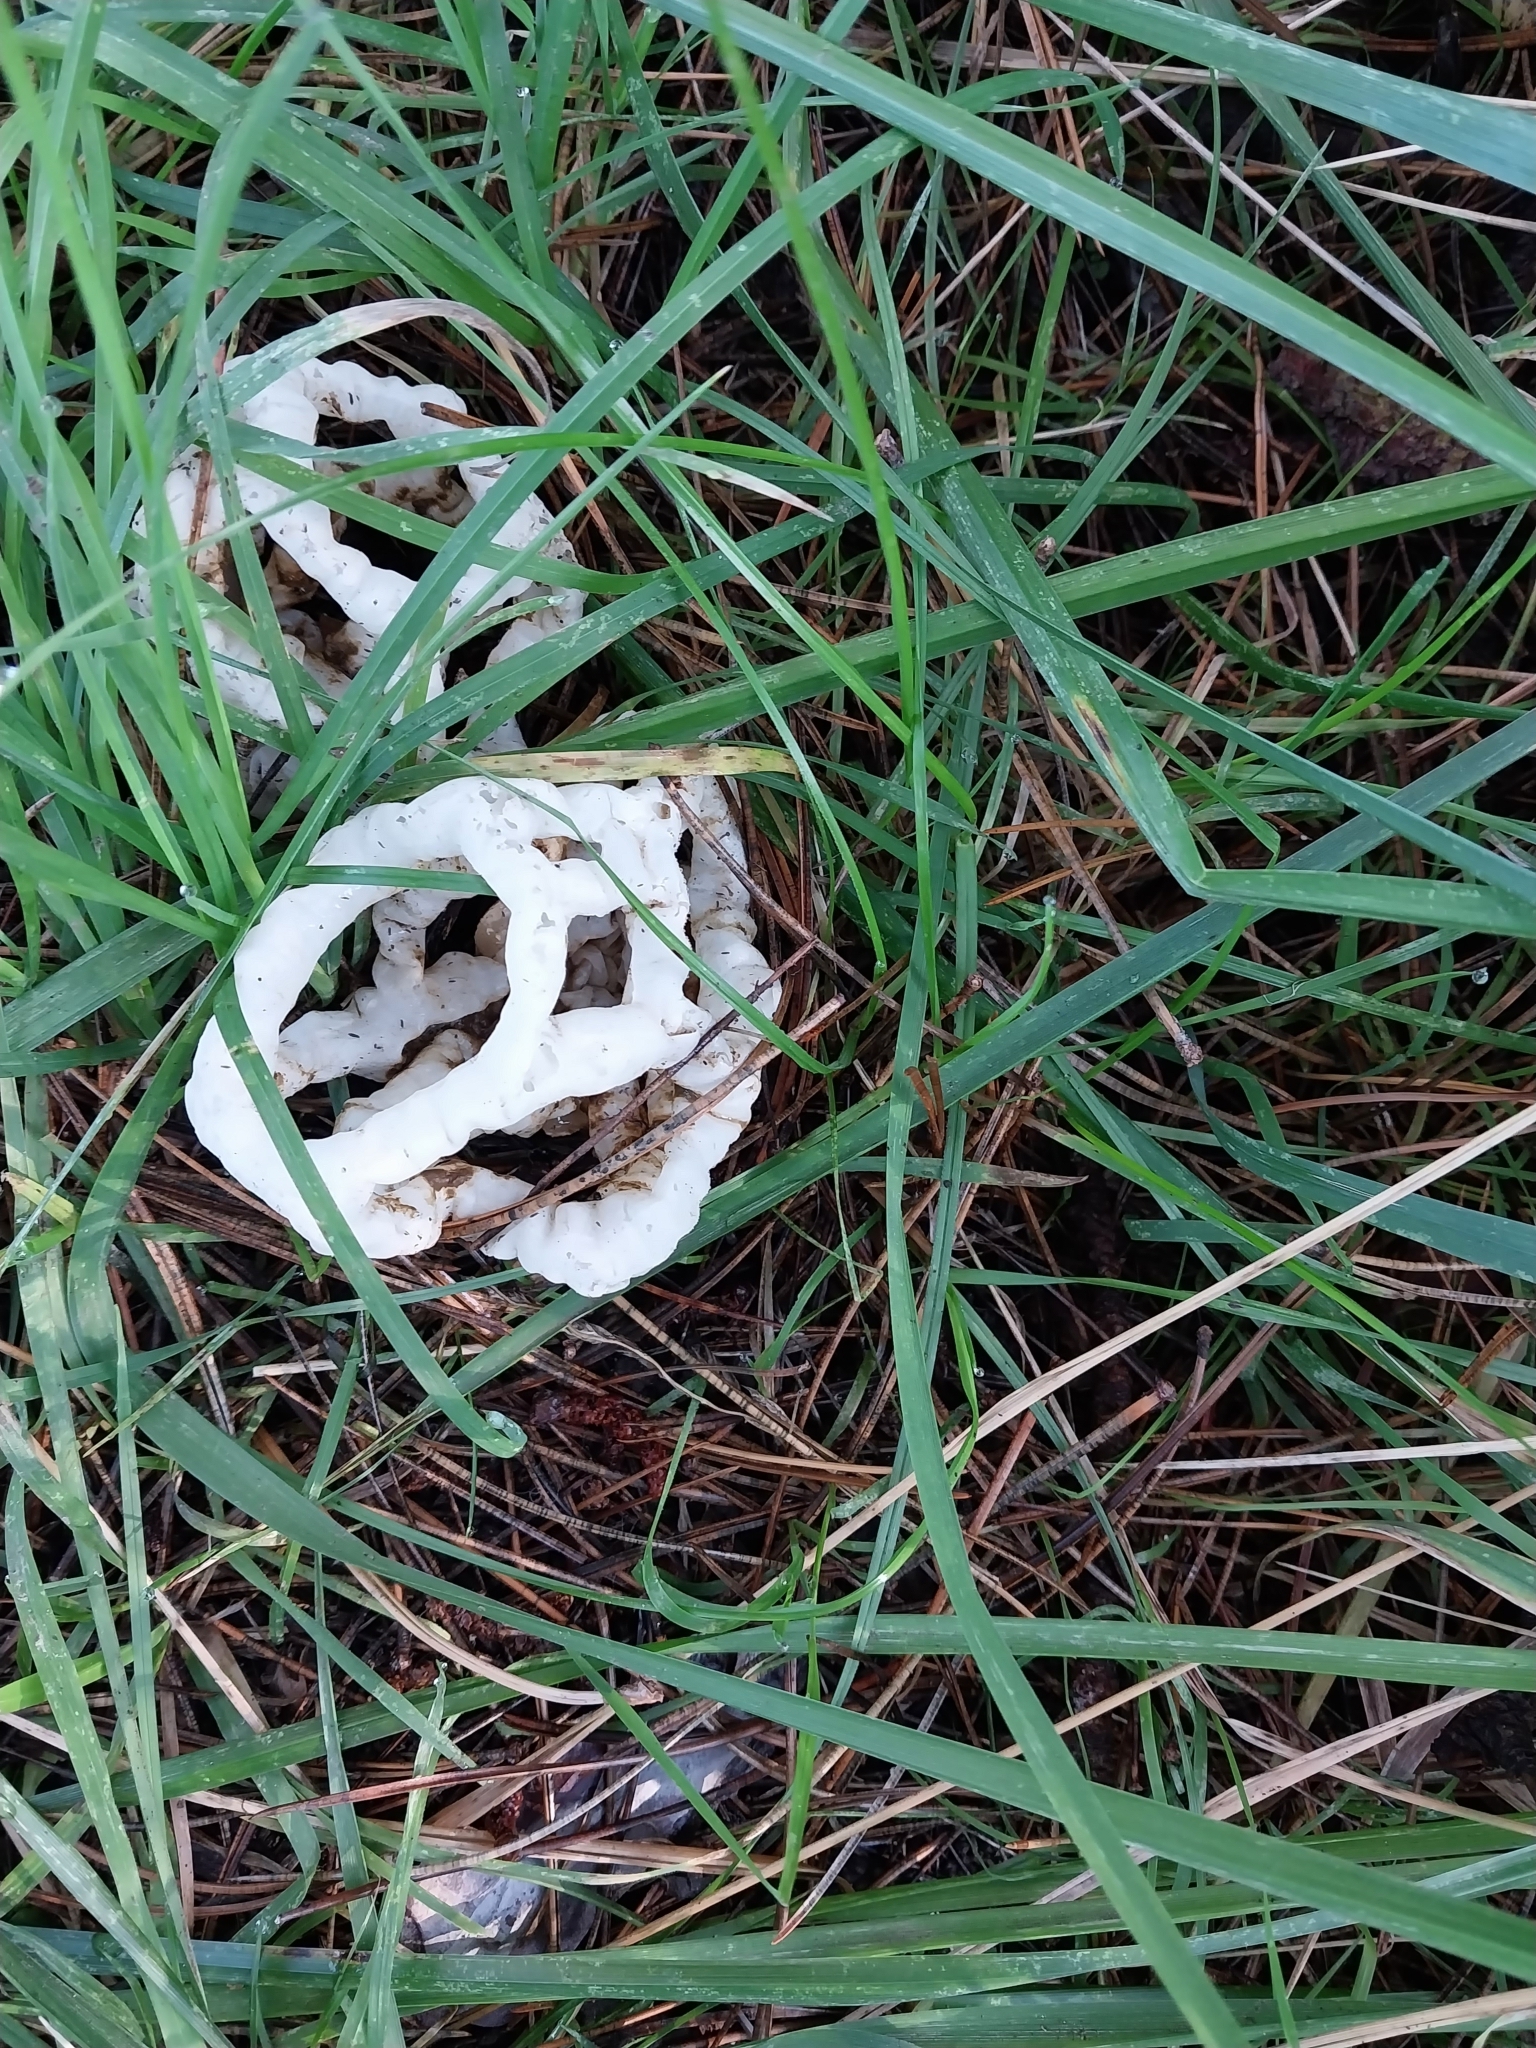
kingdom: Fungi
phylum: Basidiomycota
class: Agaricomycetes
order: Phallales
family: Phallaceae
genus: Ileodictyon
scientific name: Ileodictyon cibarium
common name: Basket fungus
